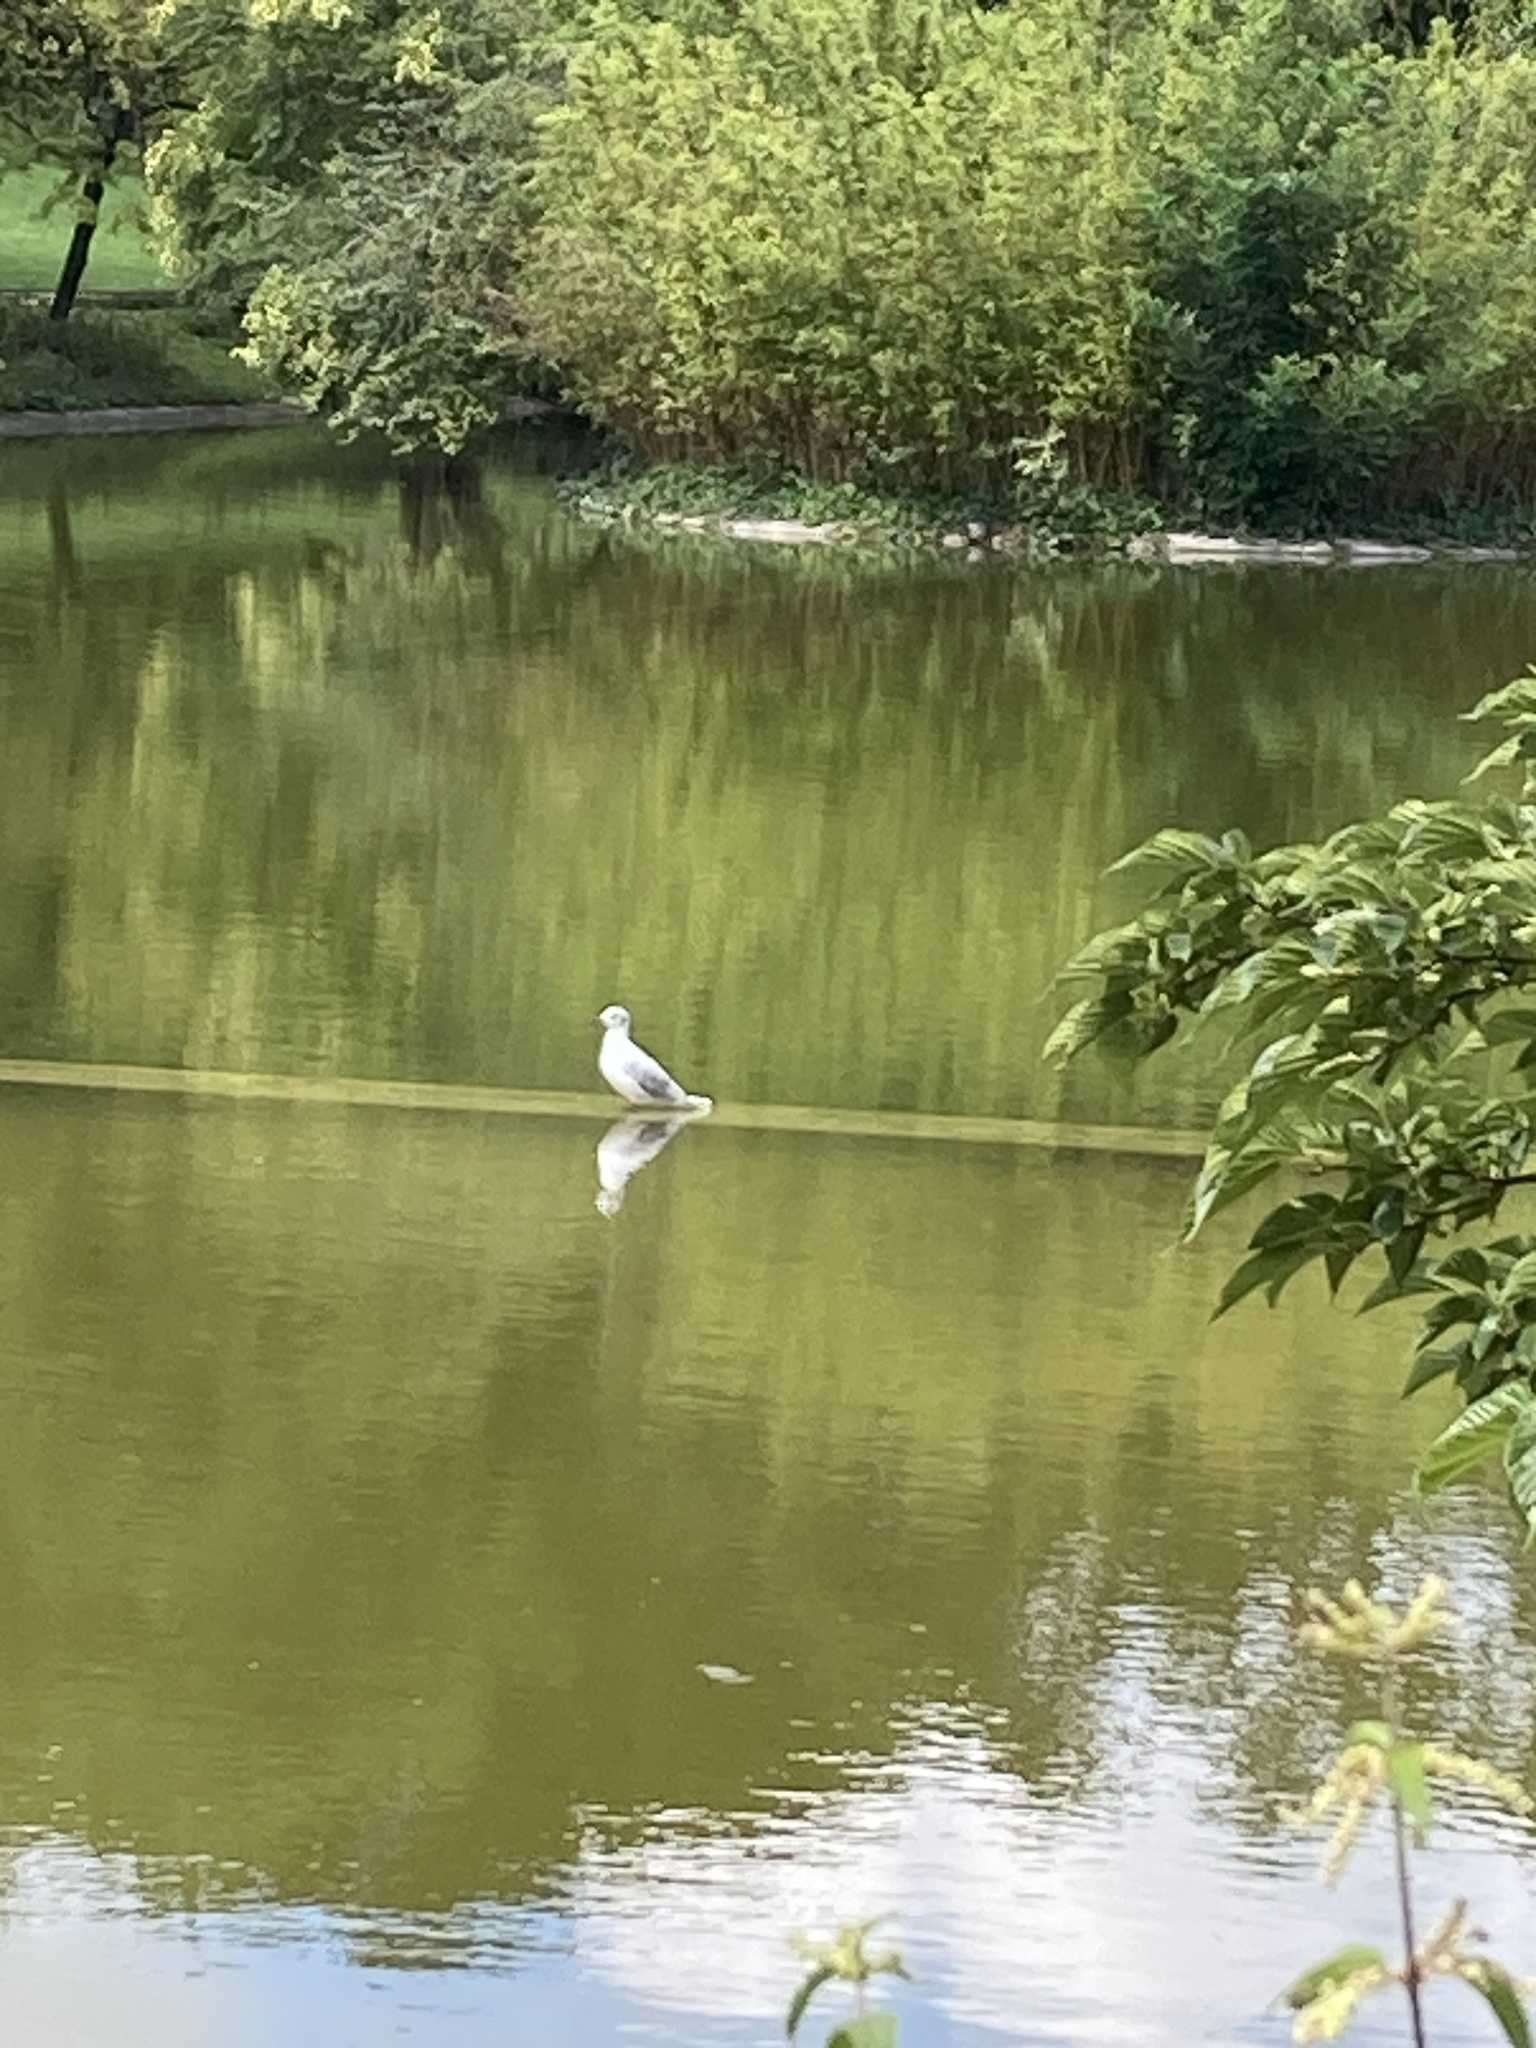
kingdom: Animalia
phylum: Chordata
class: Aves
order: Charadriiformes
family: Laridae
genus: Chroicocephalus
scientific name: Chroicocephalus ridibundus
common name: Black-headed gull
